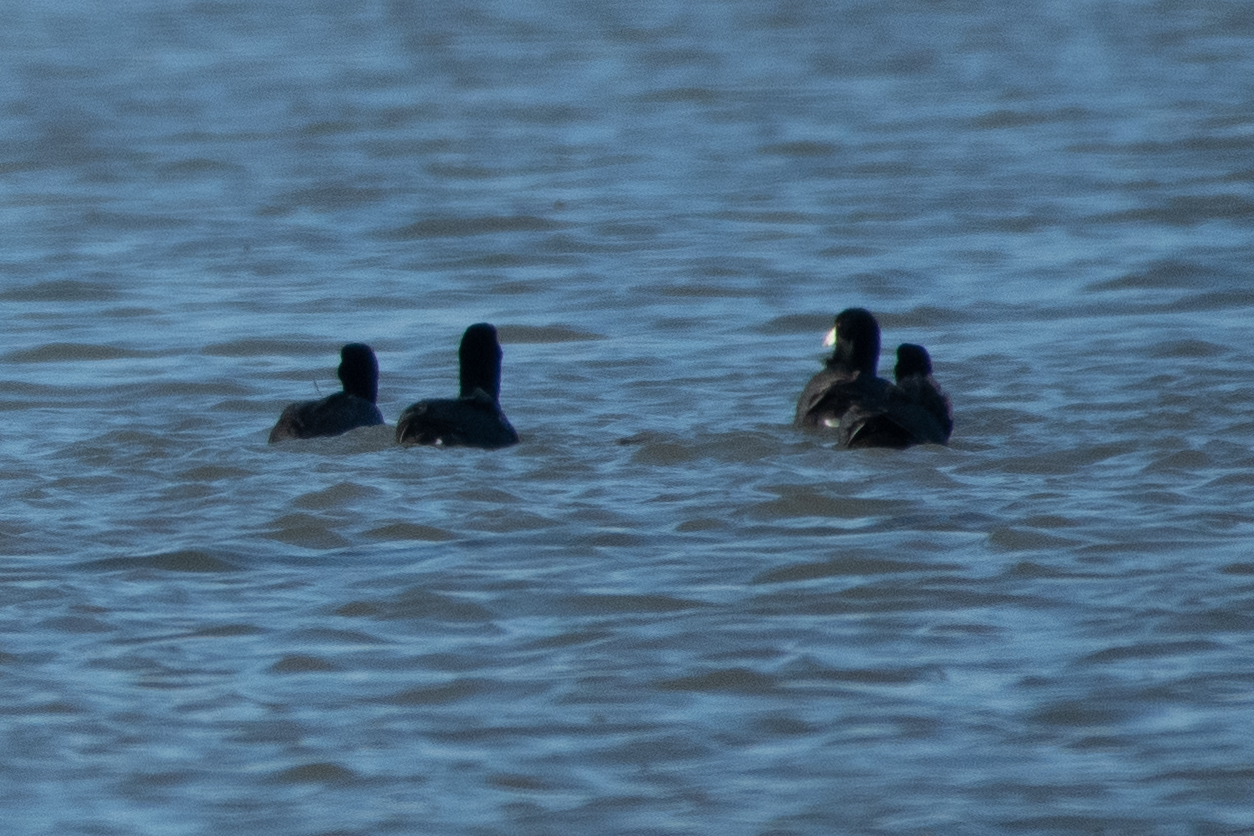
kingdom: Animalia
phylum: Chordata
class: Aves
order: Gruiformes
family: Rallidae
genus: Fulica
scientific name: Fulica americana
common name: American coot
